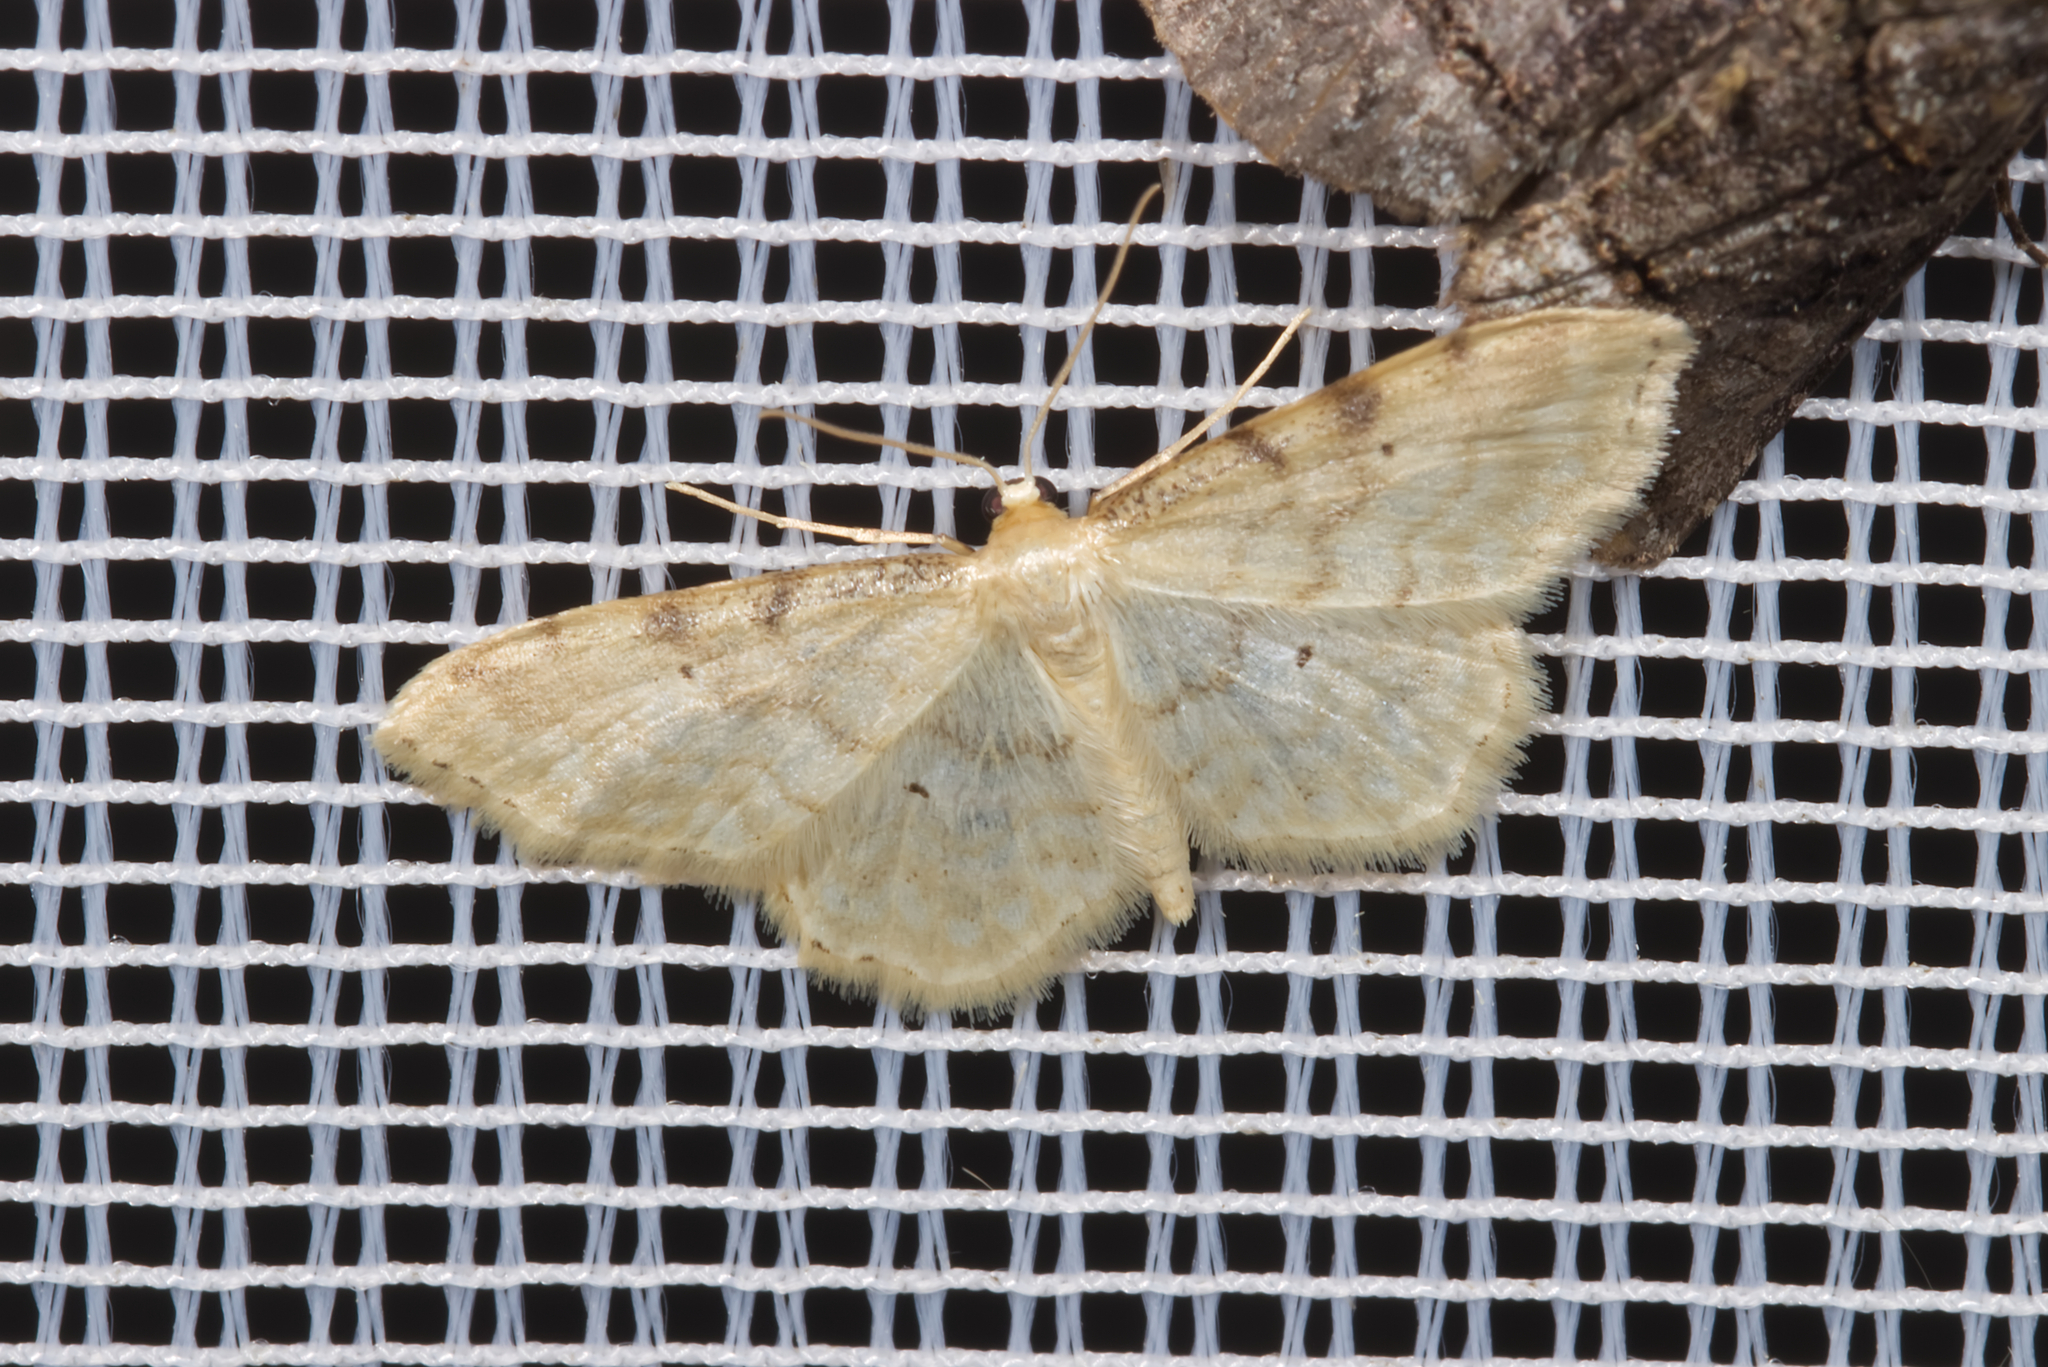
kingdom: Animalia
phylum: Arthropoda
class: Insecta
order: Lepidoptera
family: Geometridae
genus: Idaea
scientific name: Idaea fuscovenosa
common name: Dwarf cream wave
